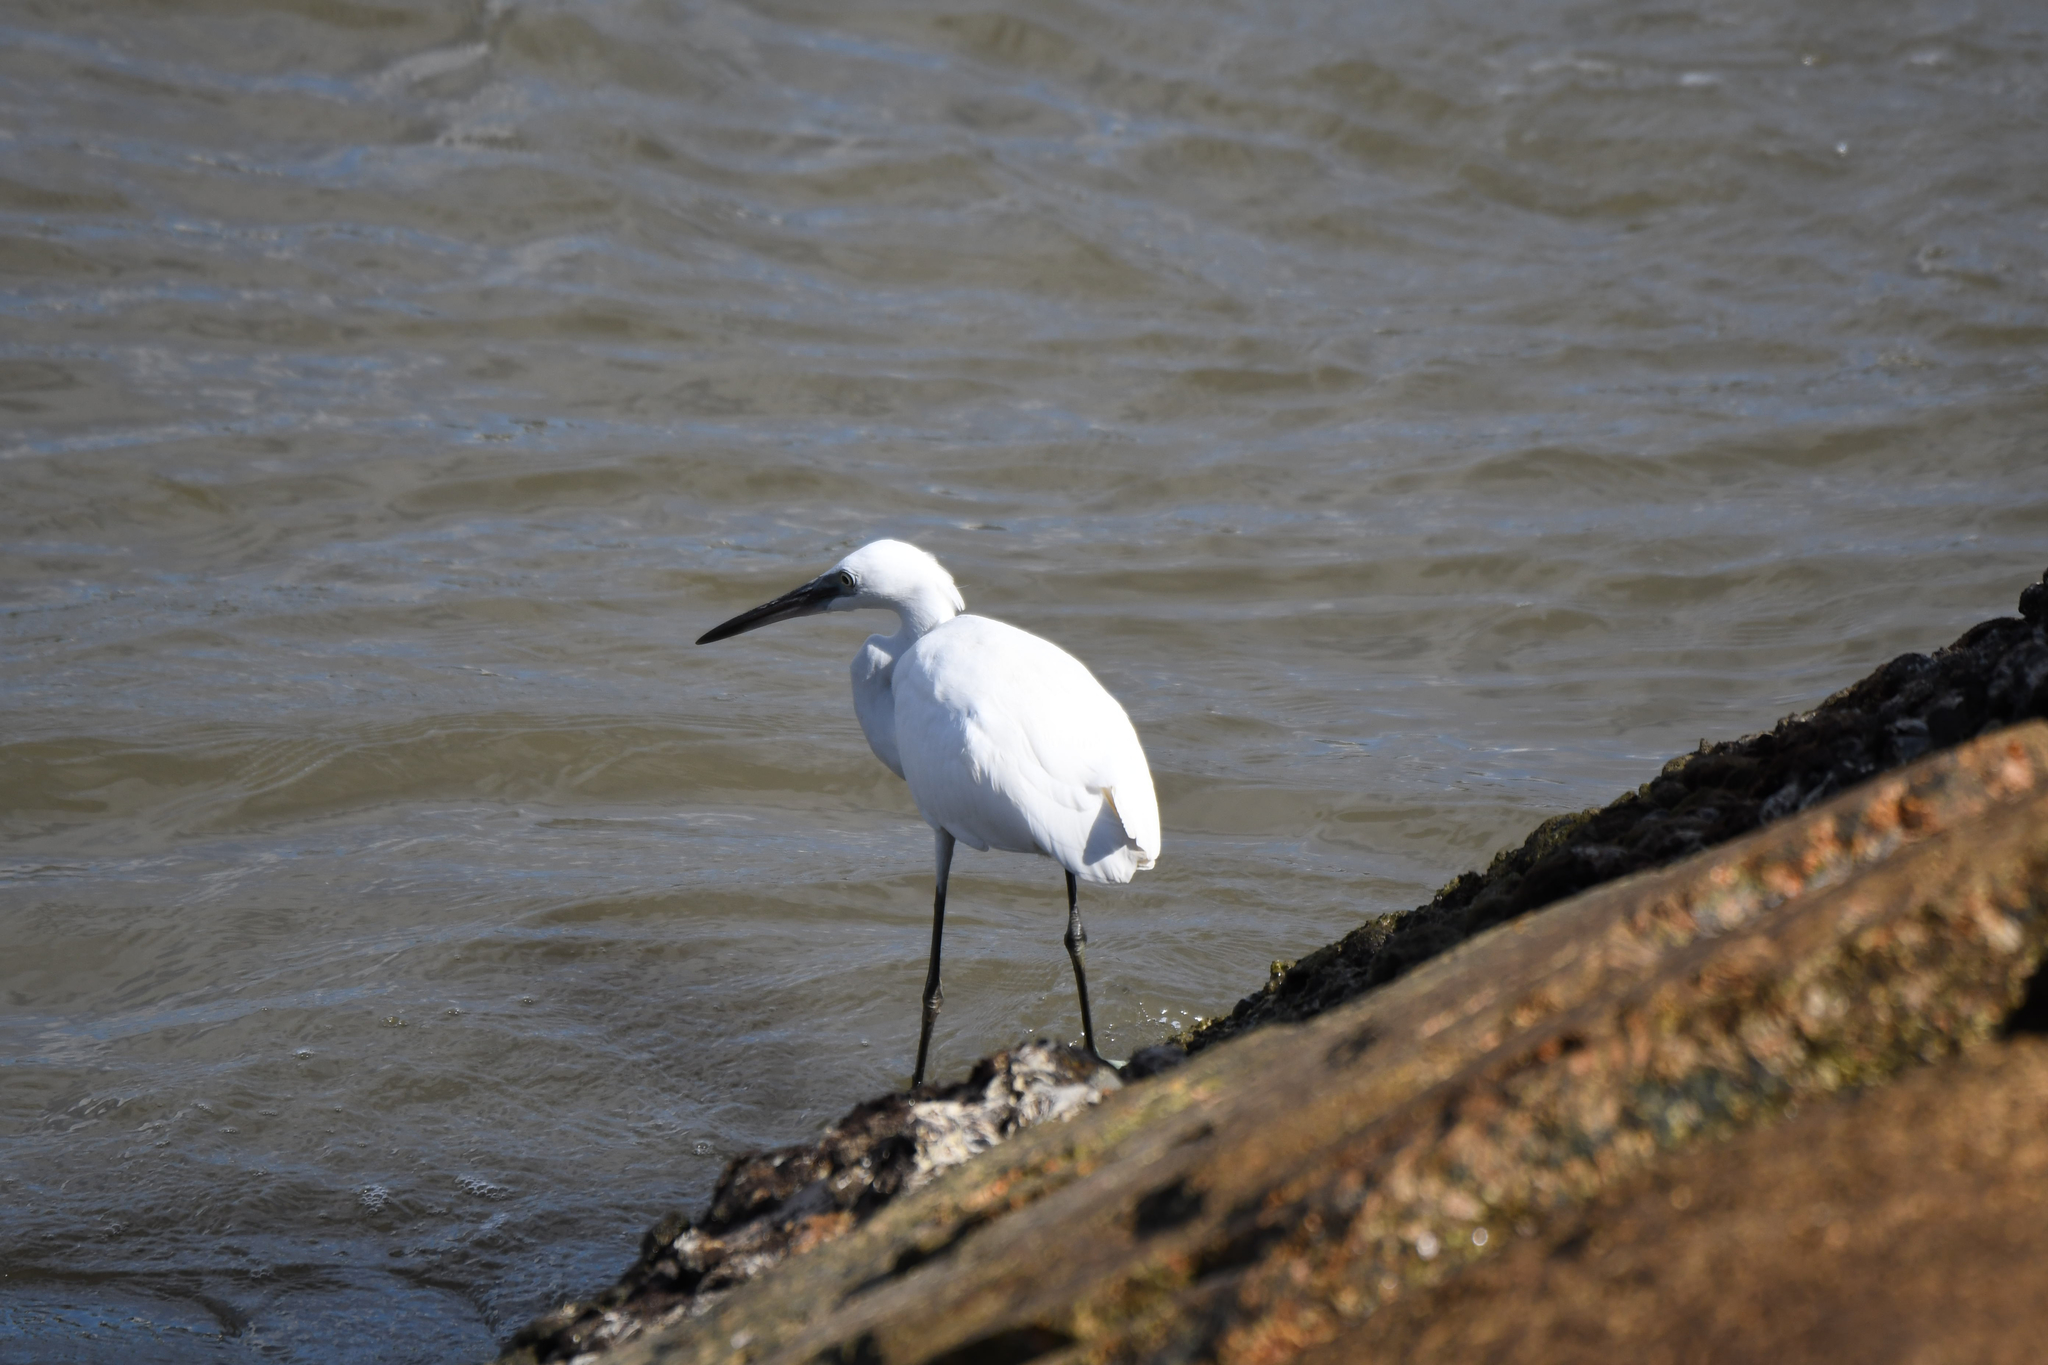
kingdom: Animalia
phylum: Chordata
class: Aves
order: Pelecaniformes
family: Ardeidae
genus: Egretta
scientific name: Egretta garzetta
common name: Little egret
